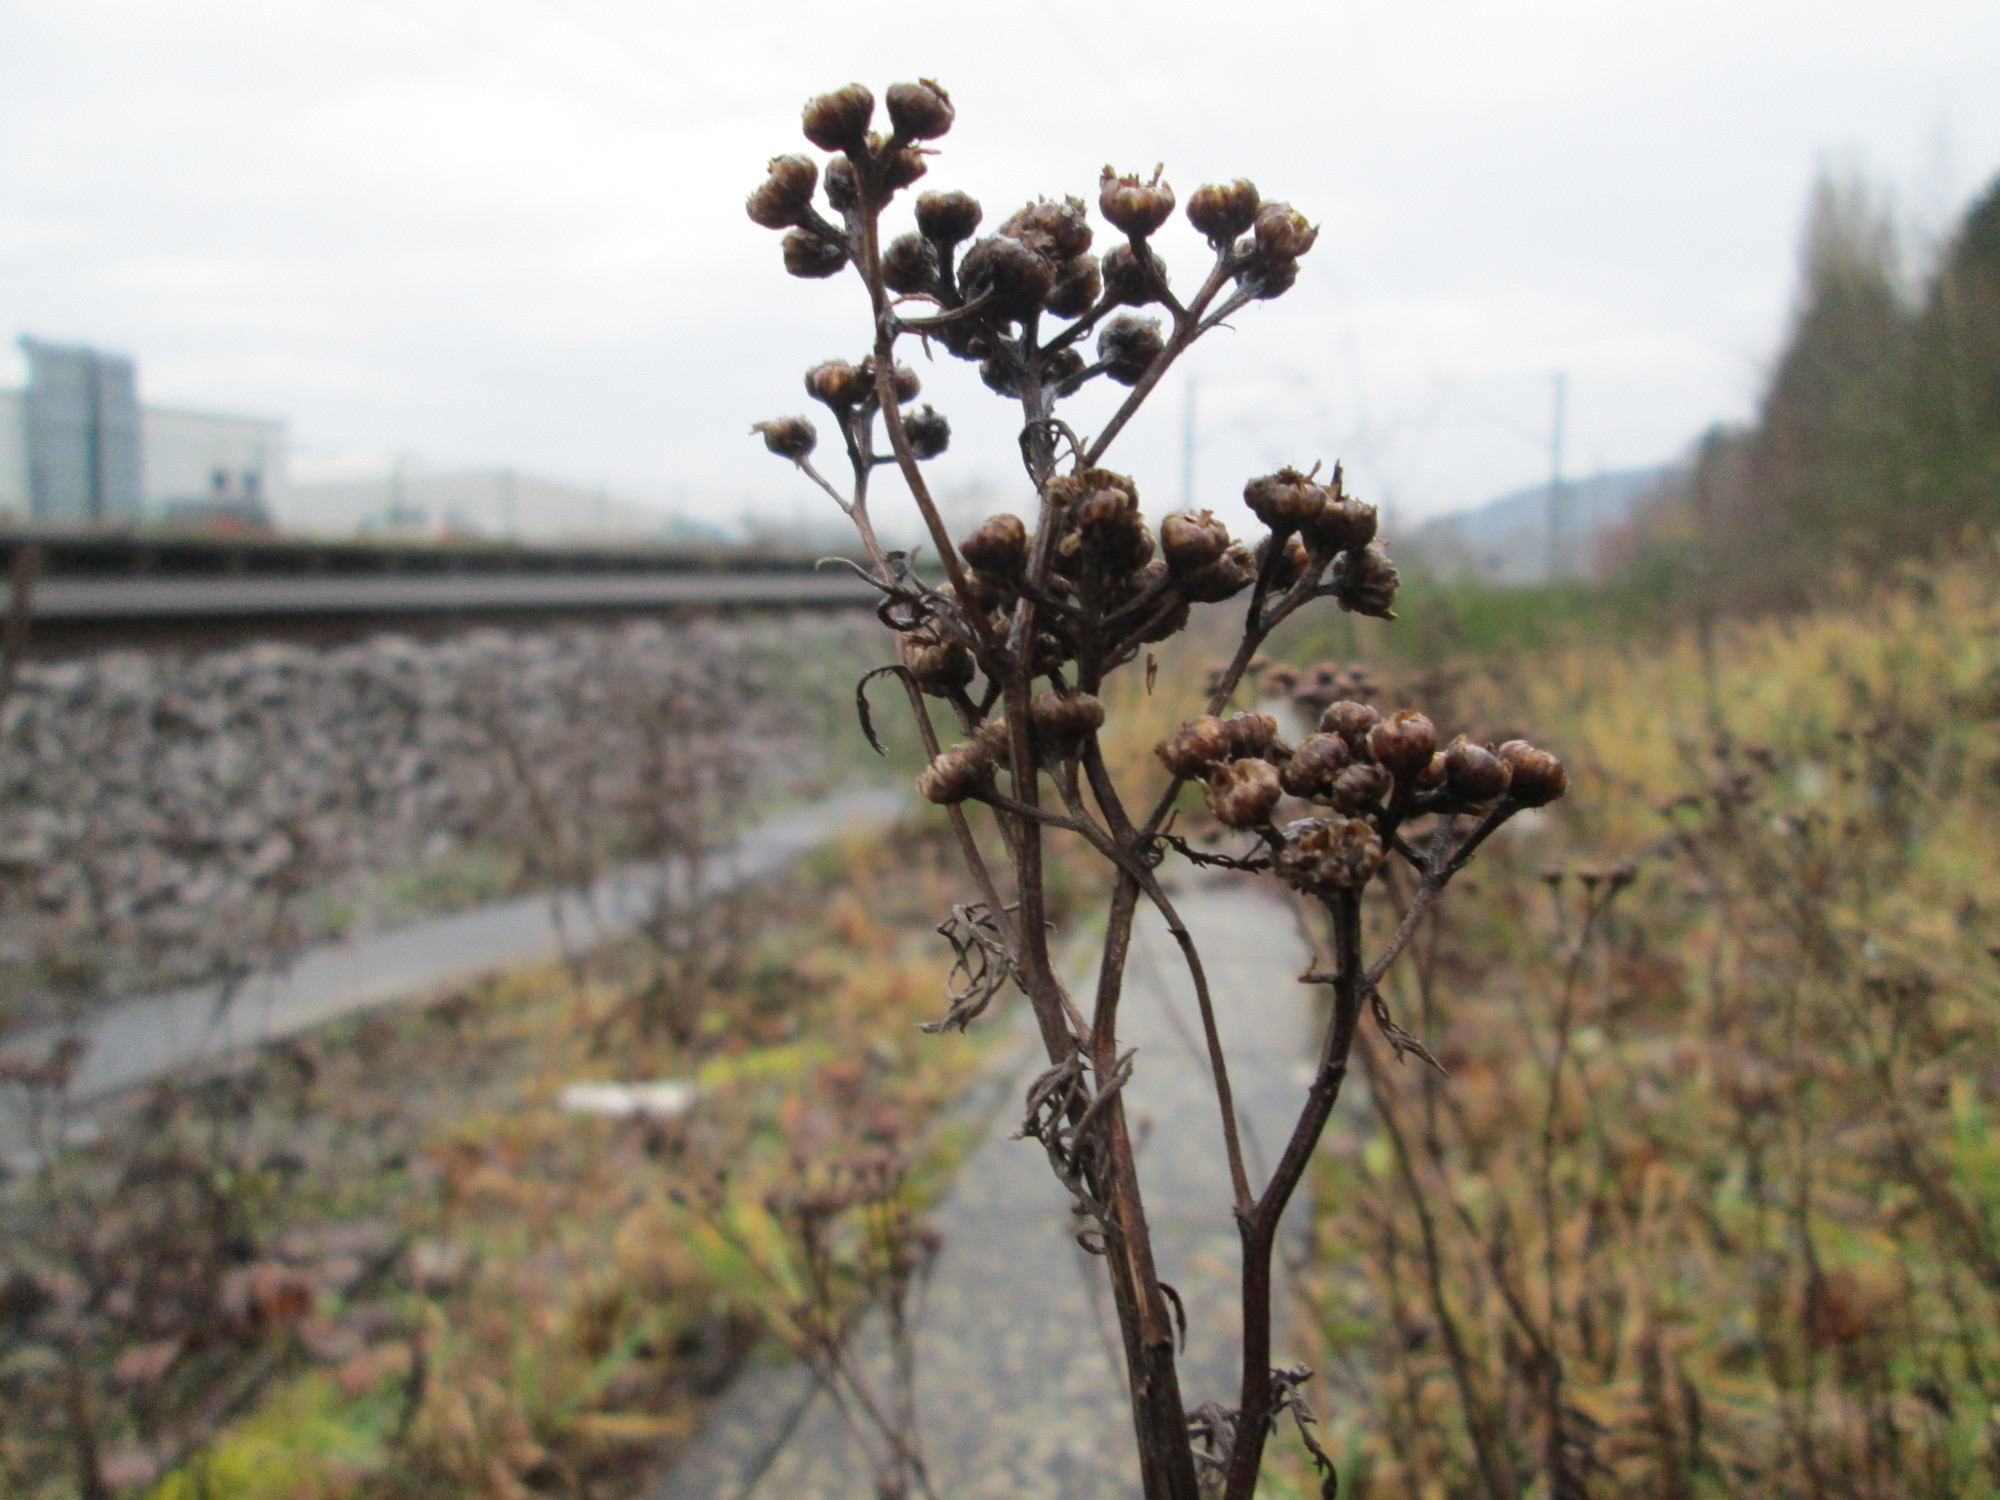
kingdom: Plantae
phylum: Tracheophyta
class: Magnoliopsida
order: Asterales
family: Asteraceae
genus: Tanacetum
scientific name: Tanacetum vulgare
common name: Common tansy
